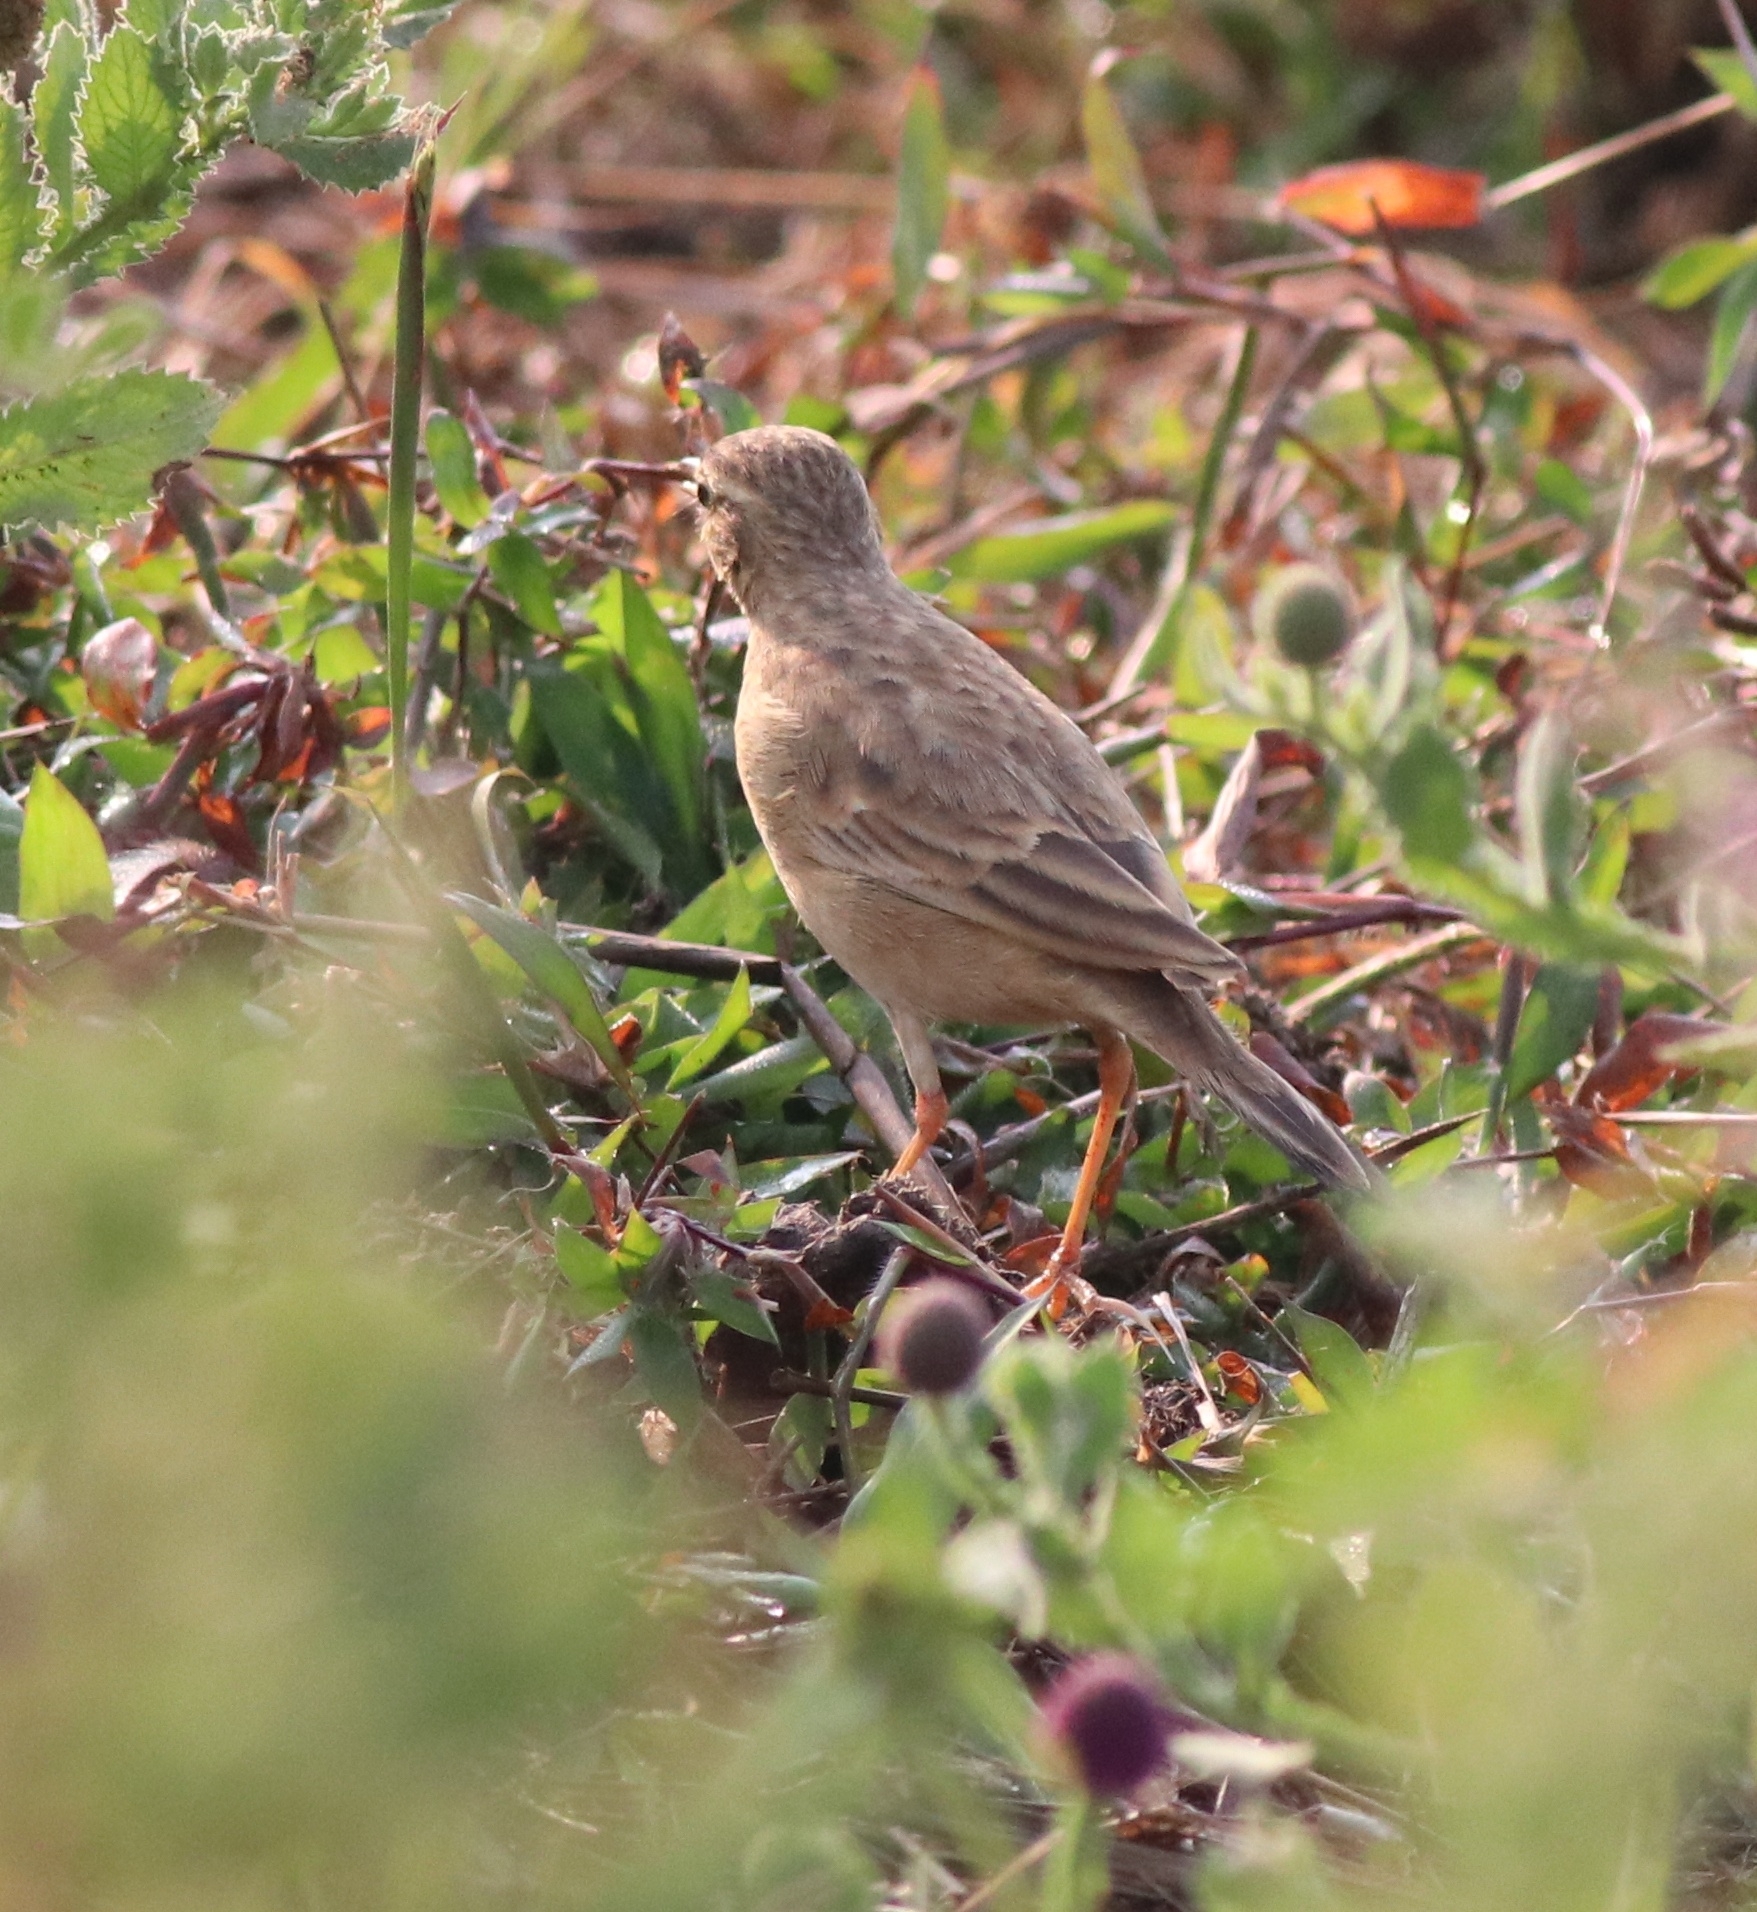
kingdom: Animalia
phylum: Chordata
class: Aves
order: Passeriformes
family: Motacillidae
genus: Anthus
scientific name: Anthus rufulus
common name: Paddyfield pipit
